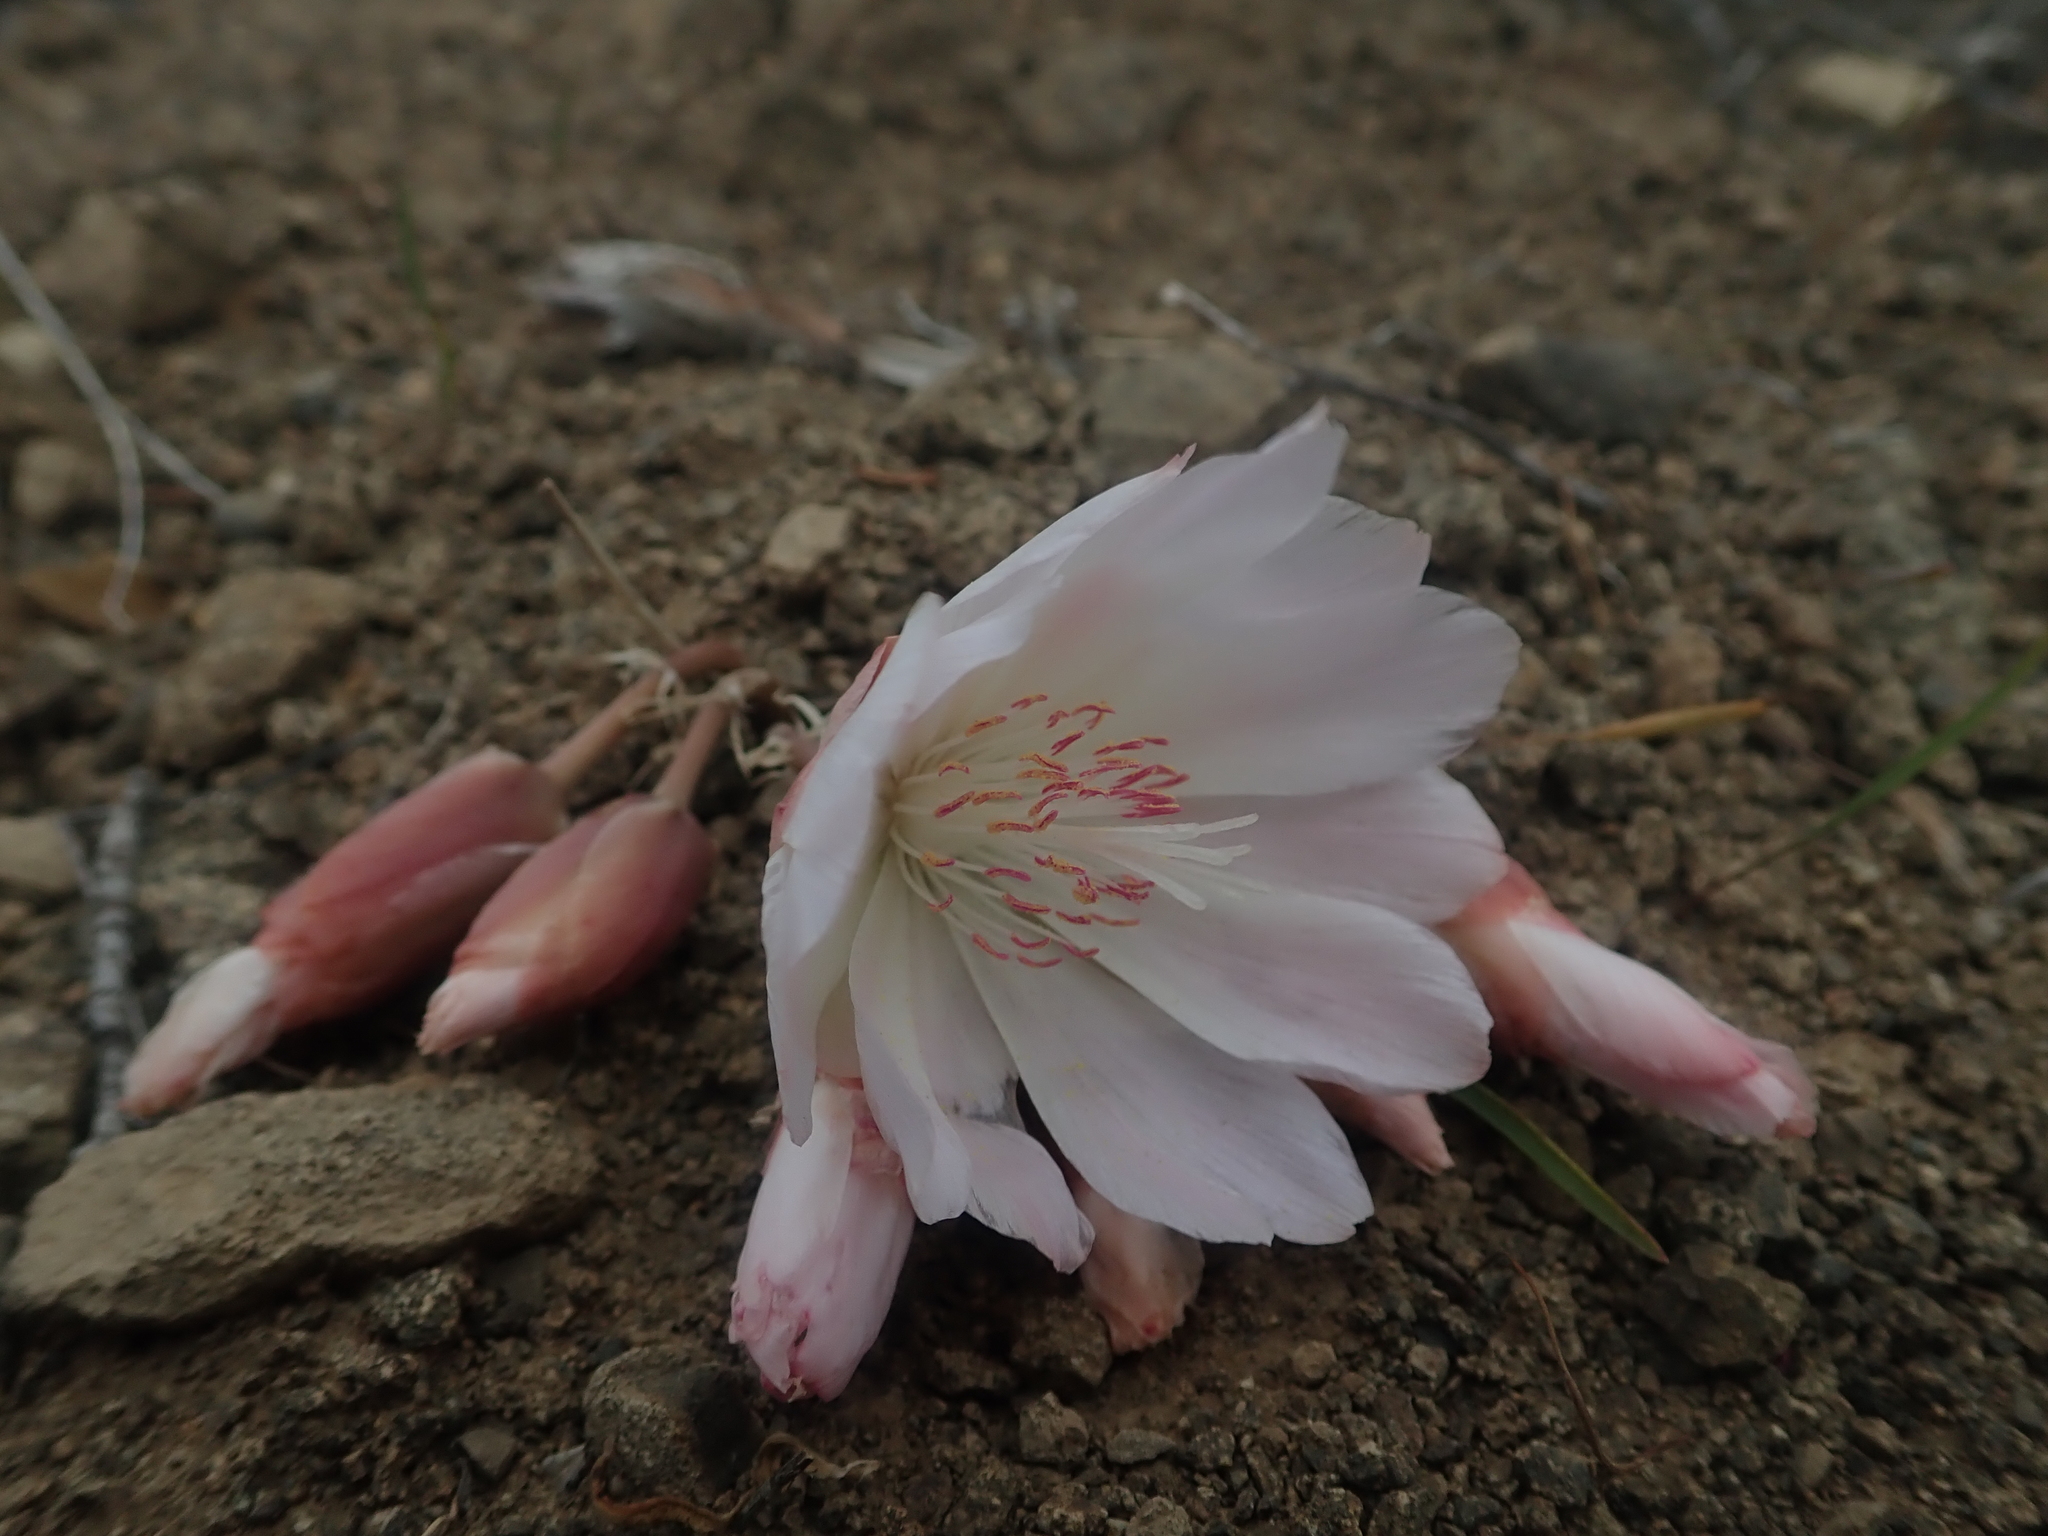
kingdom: Plantae
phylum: Tracheophyta
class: Magnoliopsida
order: Caryophyllales
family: Montiaceae
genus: Lewisia
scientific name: Lewisia rediviva
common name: Bitter-root
